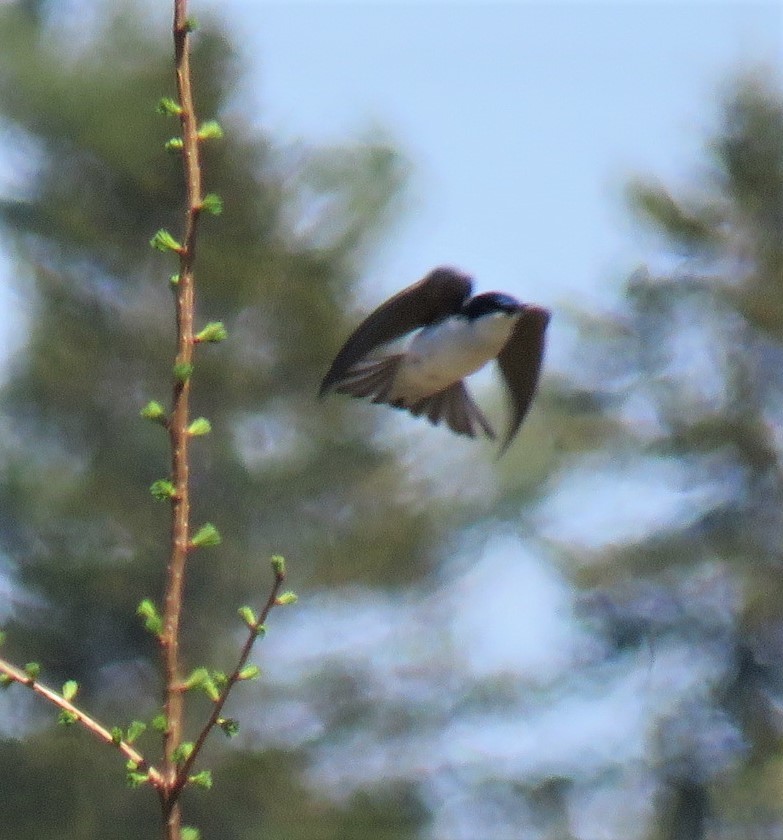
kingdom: Animalia
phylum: Chordata
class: Aves
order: Passeriformes
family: Hirundinidae
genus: Tachycineta
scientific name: Tachycineta bicolor
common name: Tree swallow
